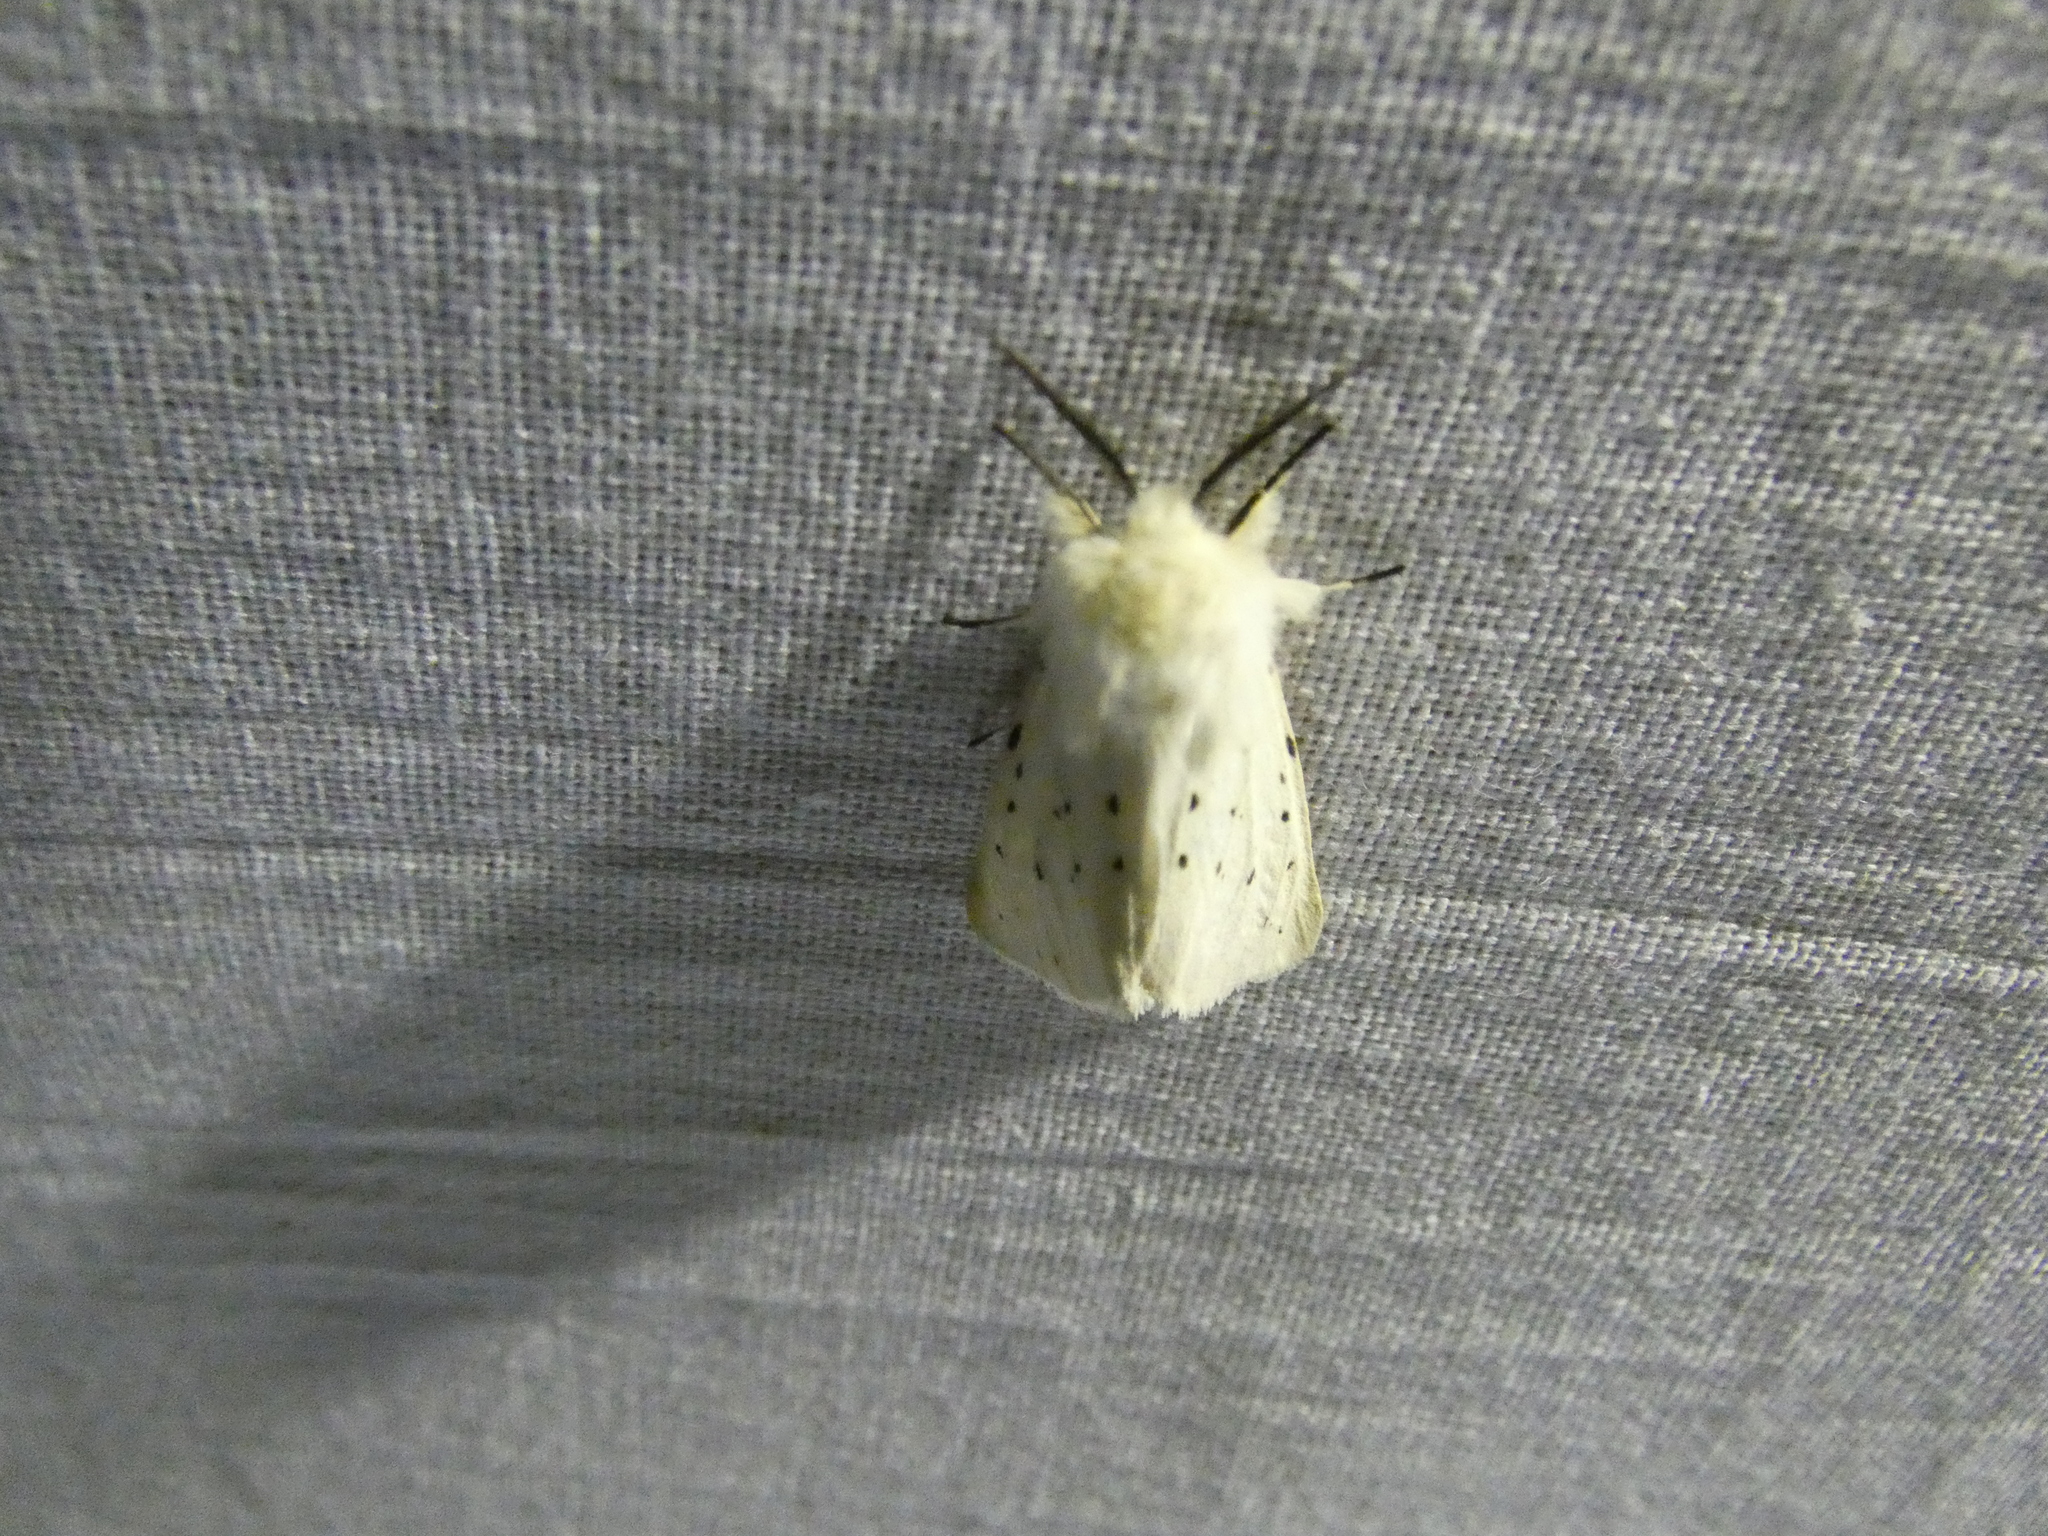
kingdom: Animalia
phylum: Arthropoda
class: Insecta
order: Lepidoptera
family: Erebidae
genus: Spilosoma
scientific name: Spilosoma lubricipeda
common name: White ermine
